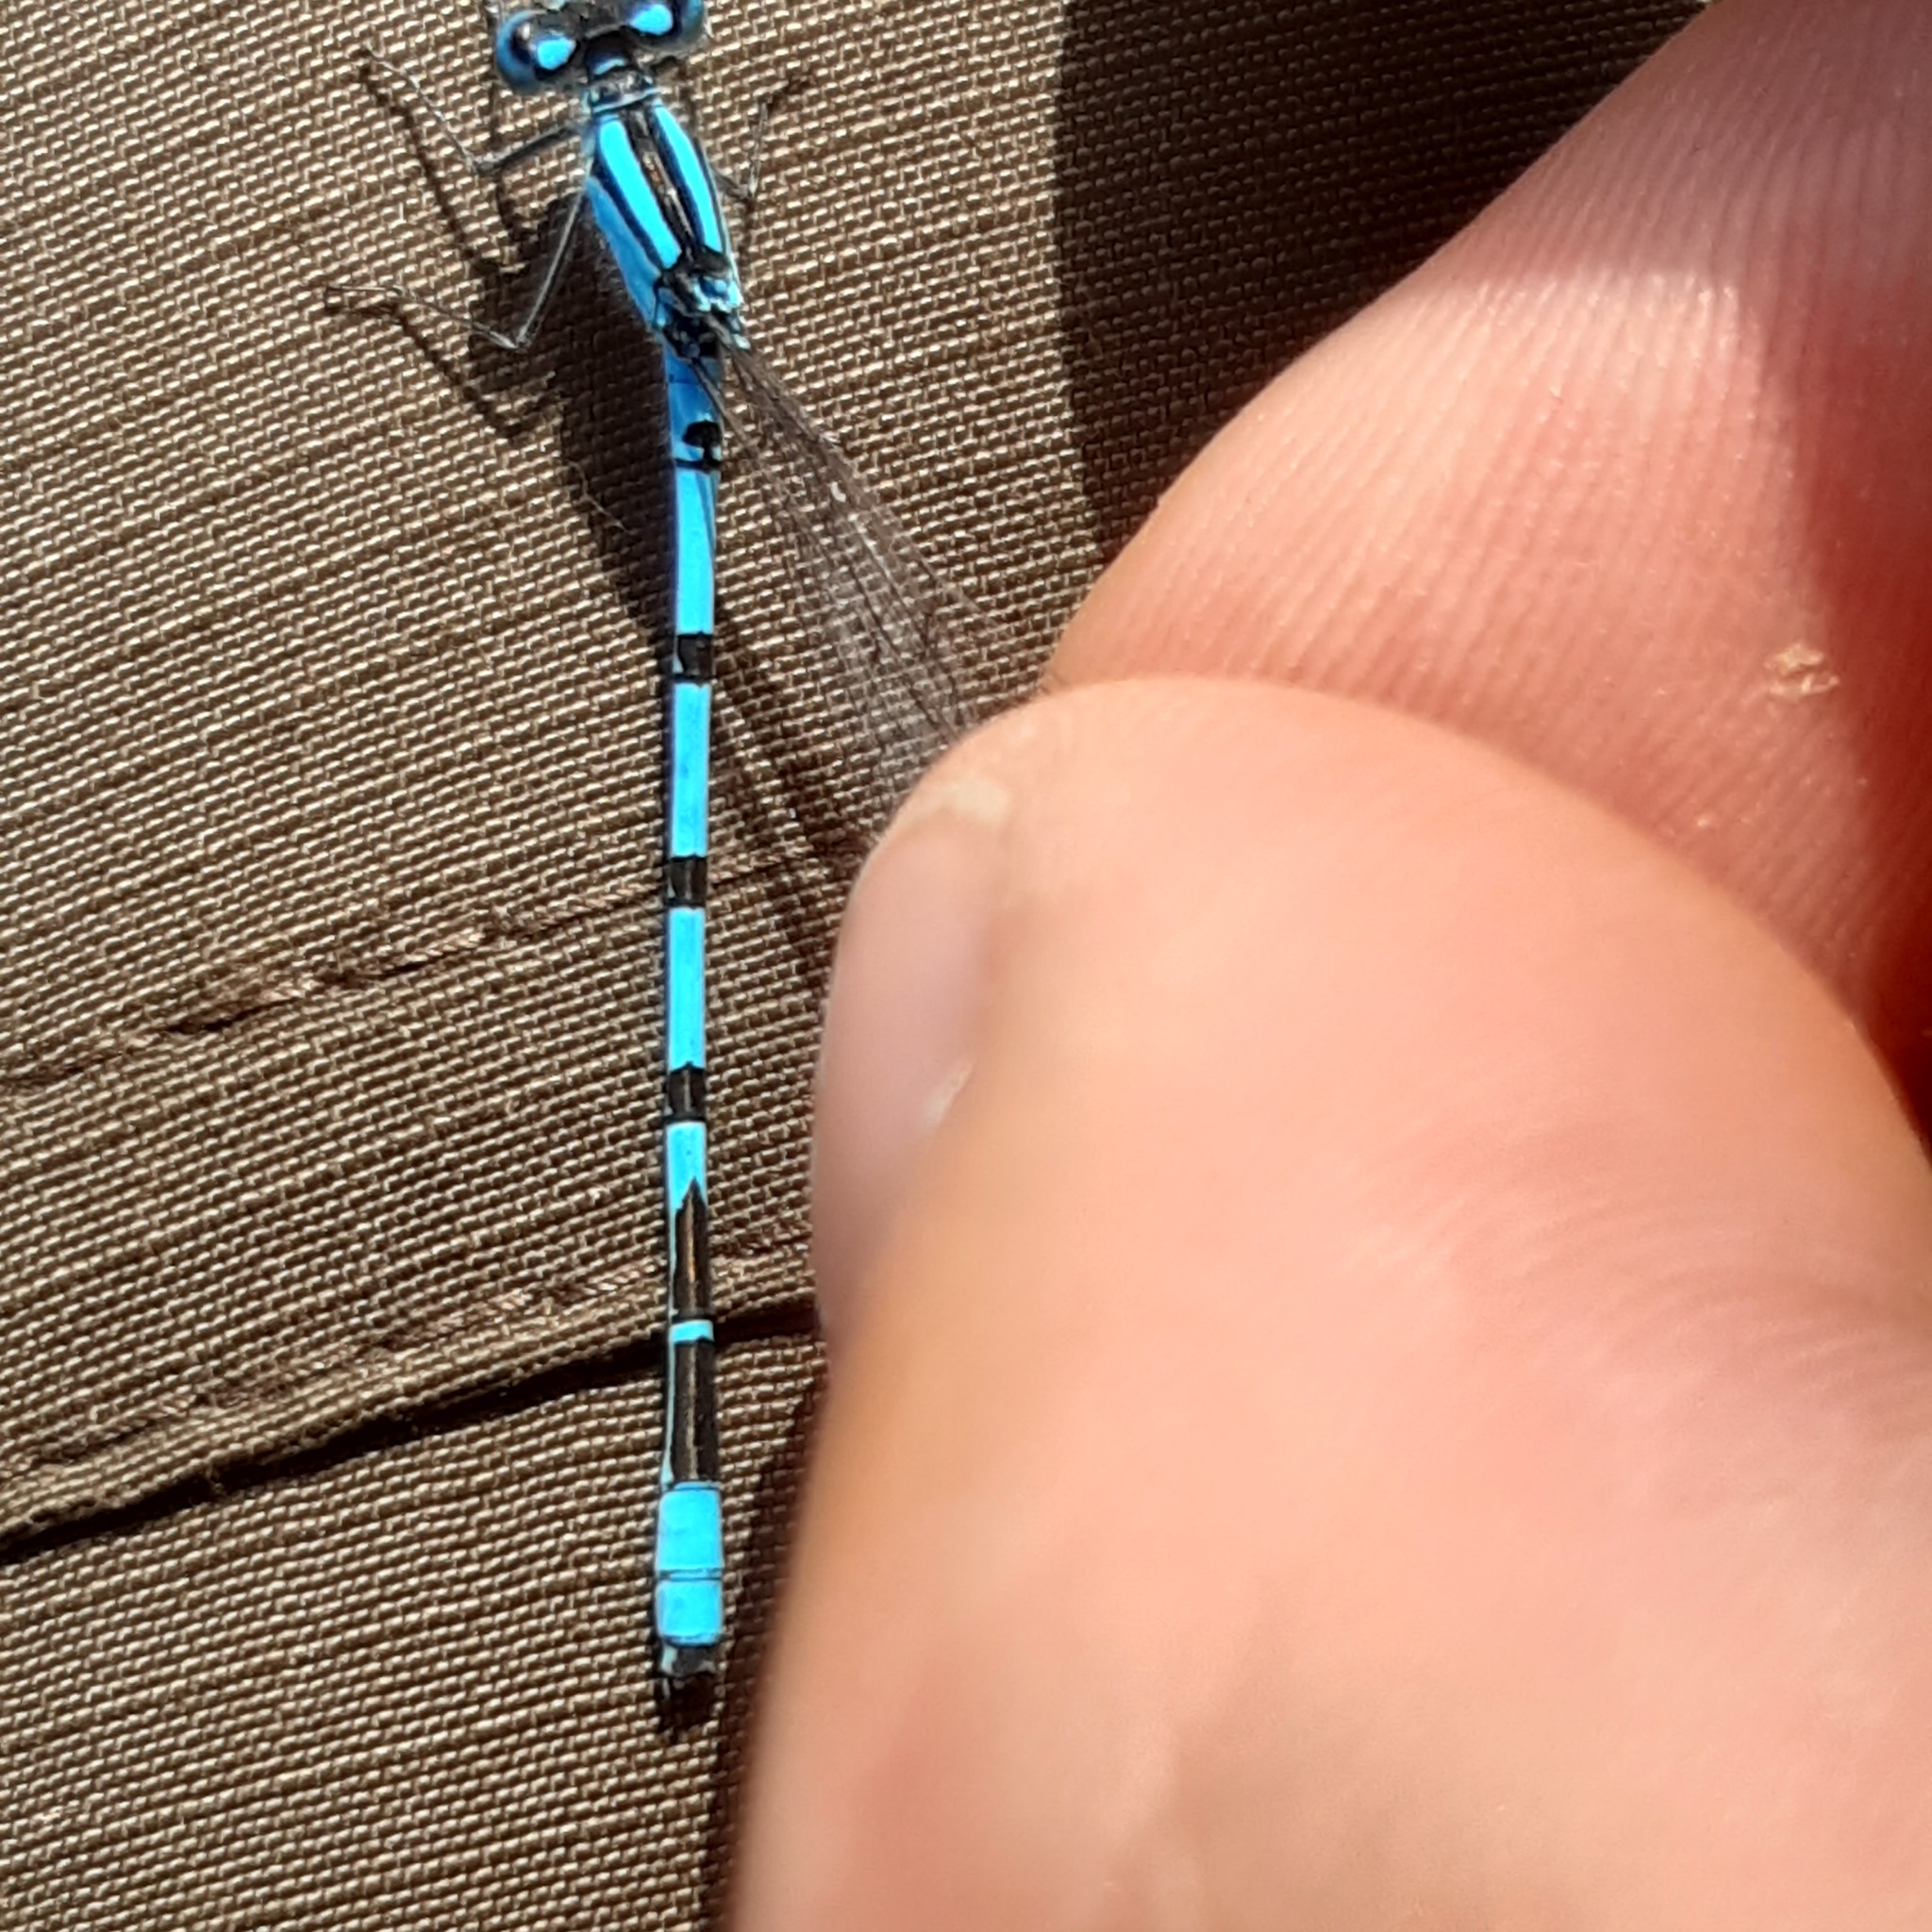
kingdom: Animalia
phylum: Arthropoda
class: Insecta
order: Odonata
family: Coenagrionidae
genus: Enallagma
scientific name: Enallagma cyathigerum
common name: Common blue damselfly
